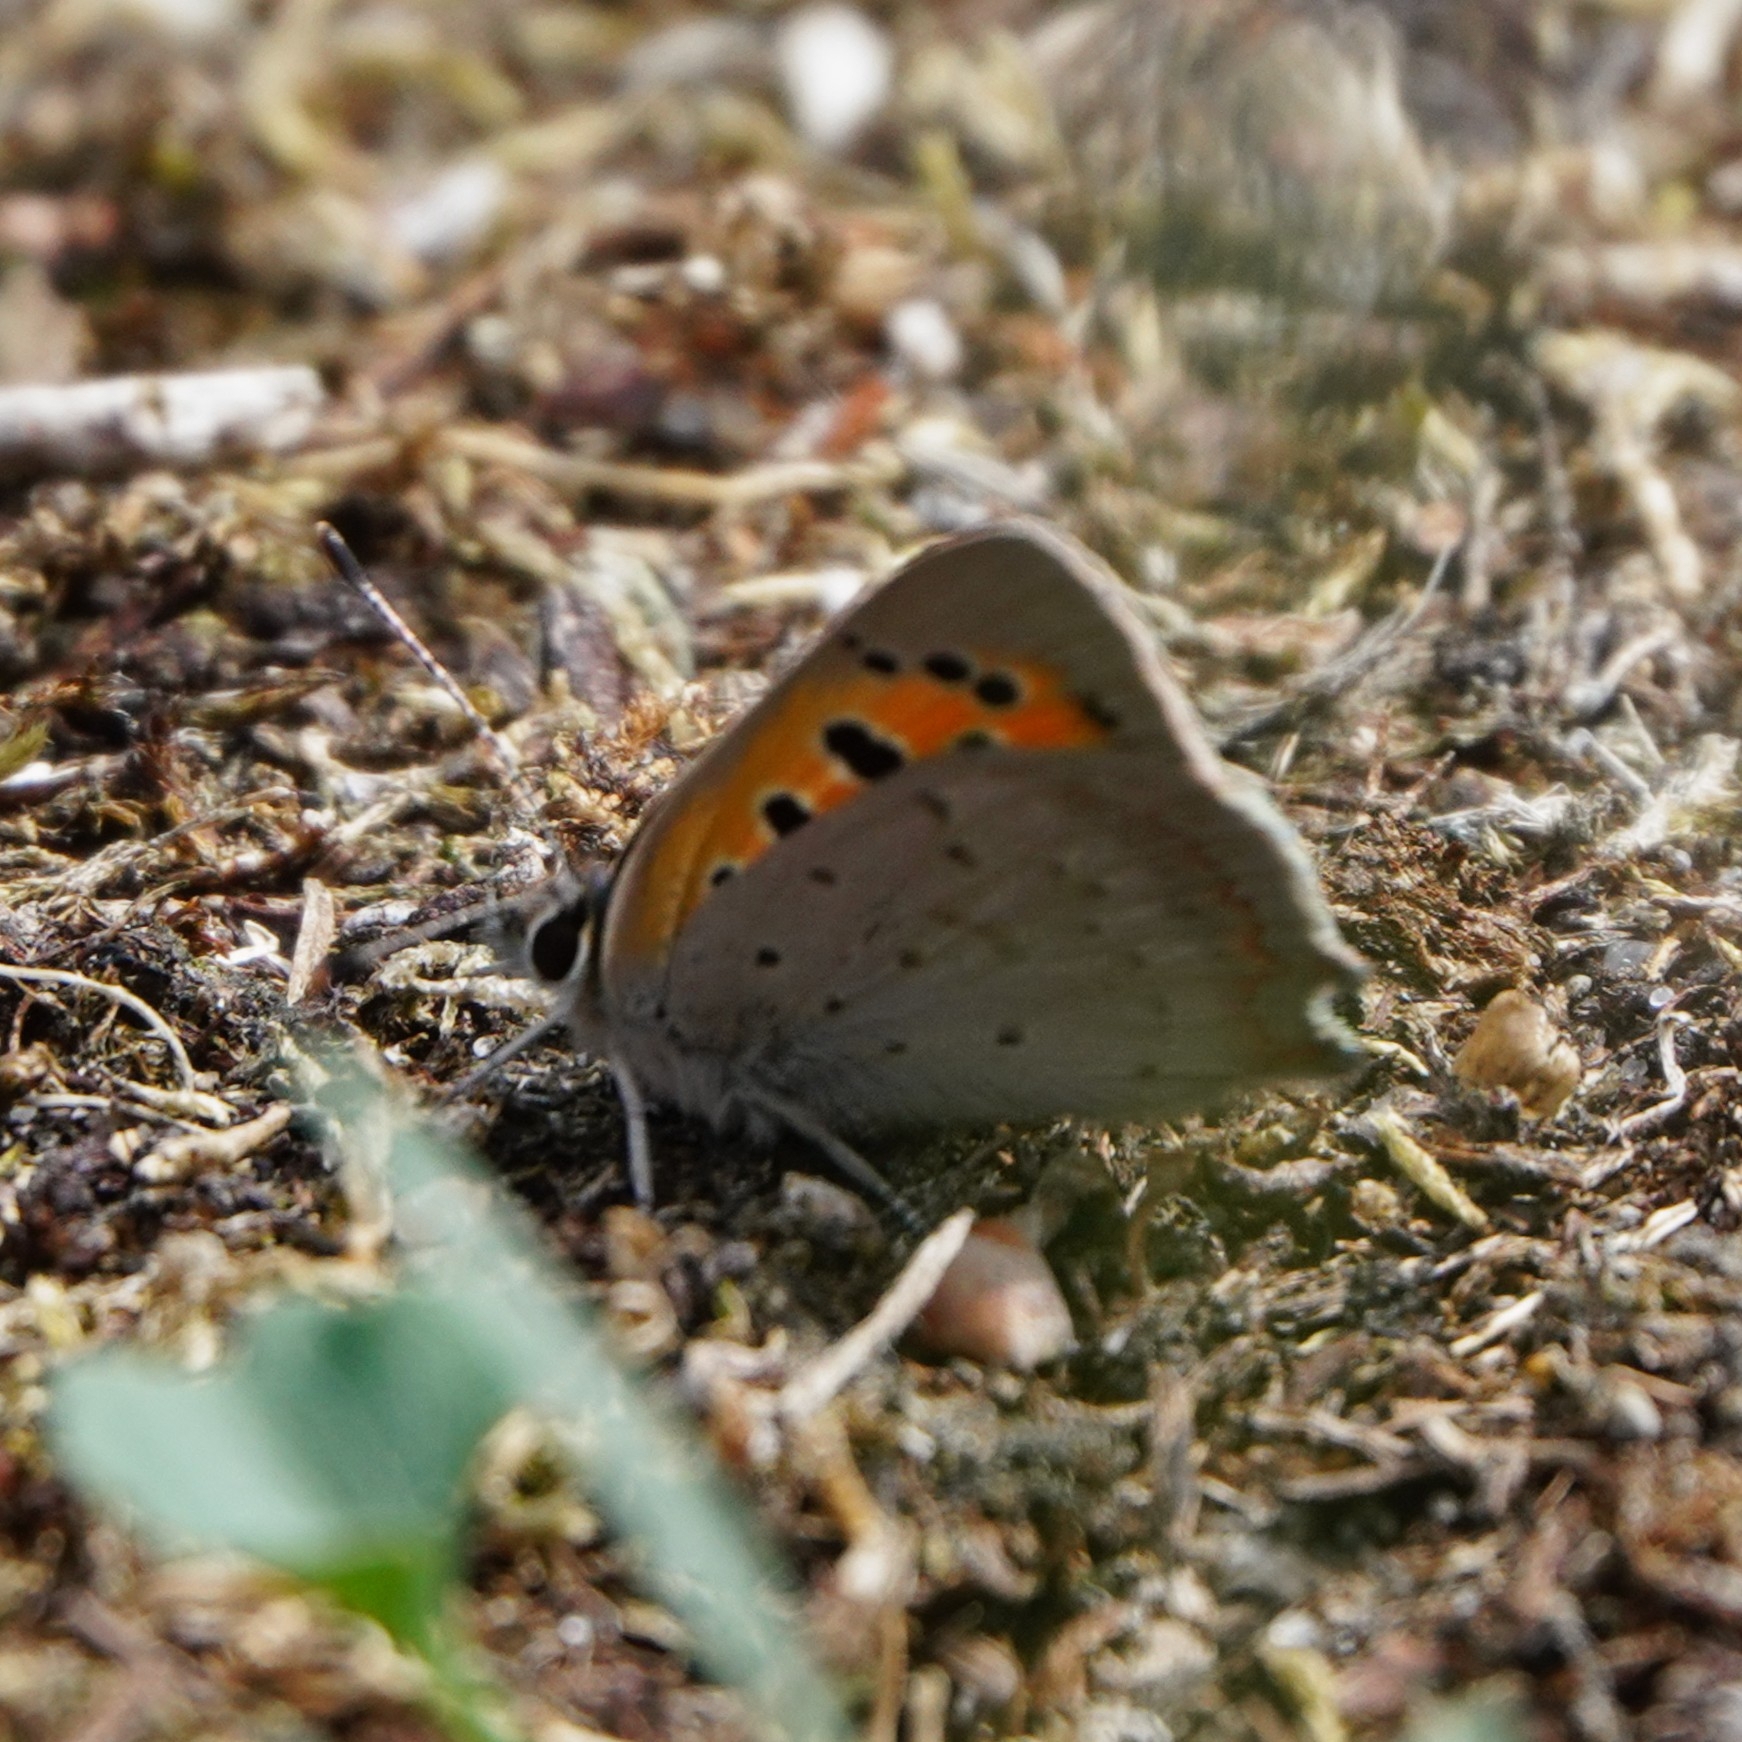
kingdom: Animalia
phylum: Arthropoda
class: Insecta
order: Lepidoptera
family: Lycaenidae
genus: Lycaena
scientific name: Lycaena phlaeas
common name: Small copper
